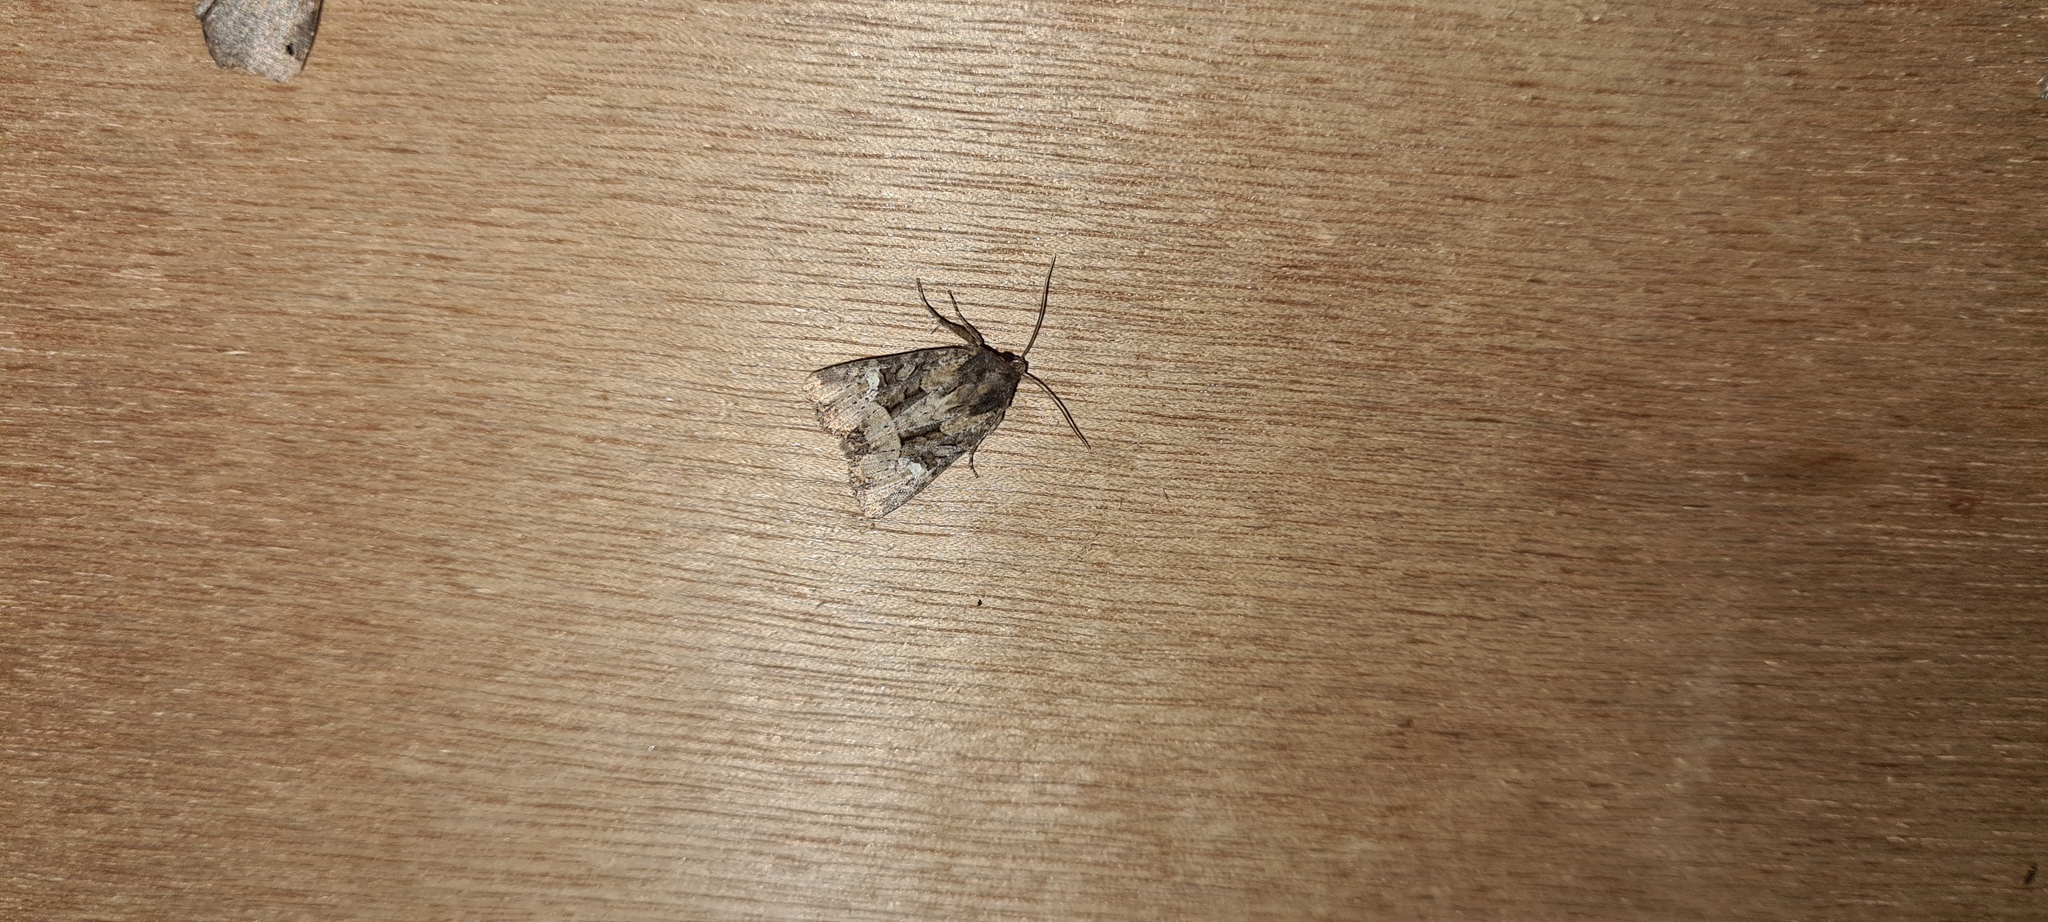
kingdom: Animalia
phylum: Arthropoda
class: Insecta
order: Lepidoptera
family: Noctuidae
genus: Mesapamea
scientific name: Mesapamea
